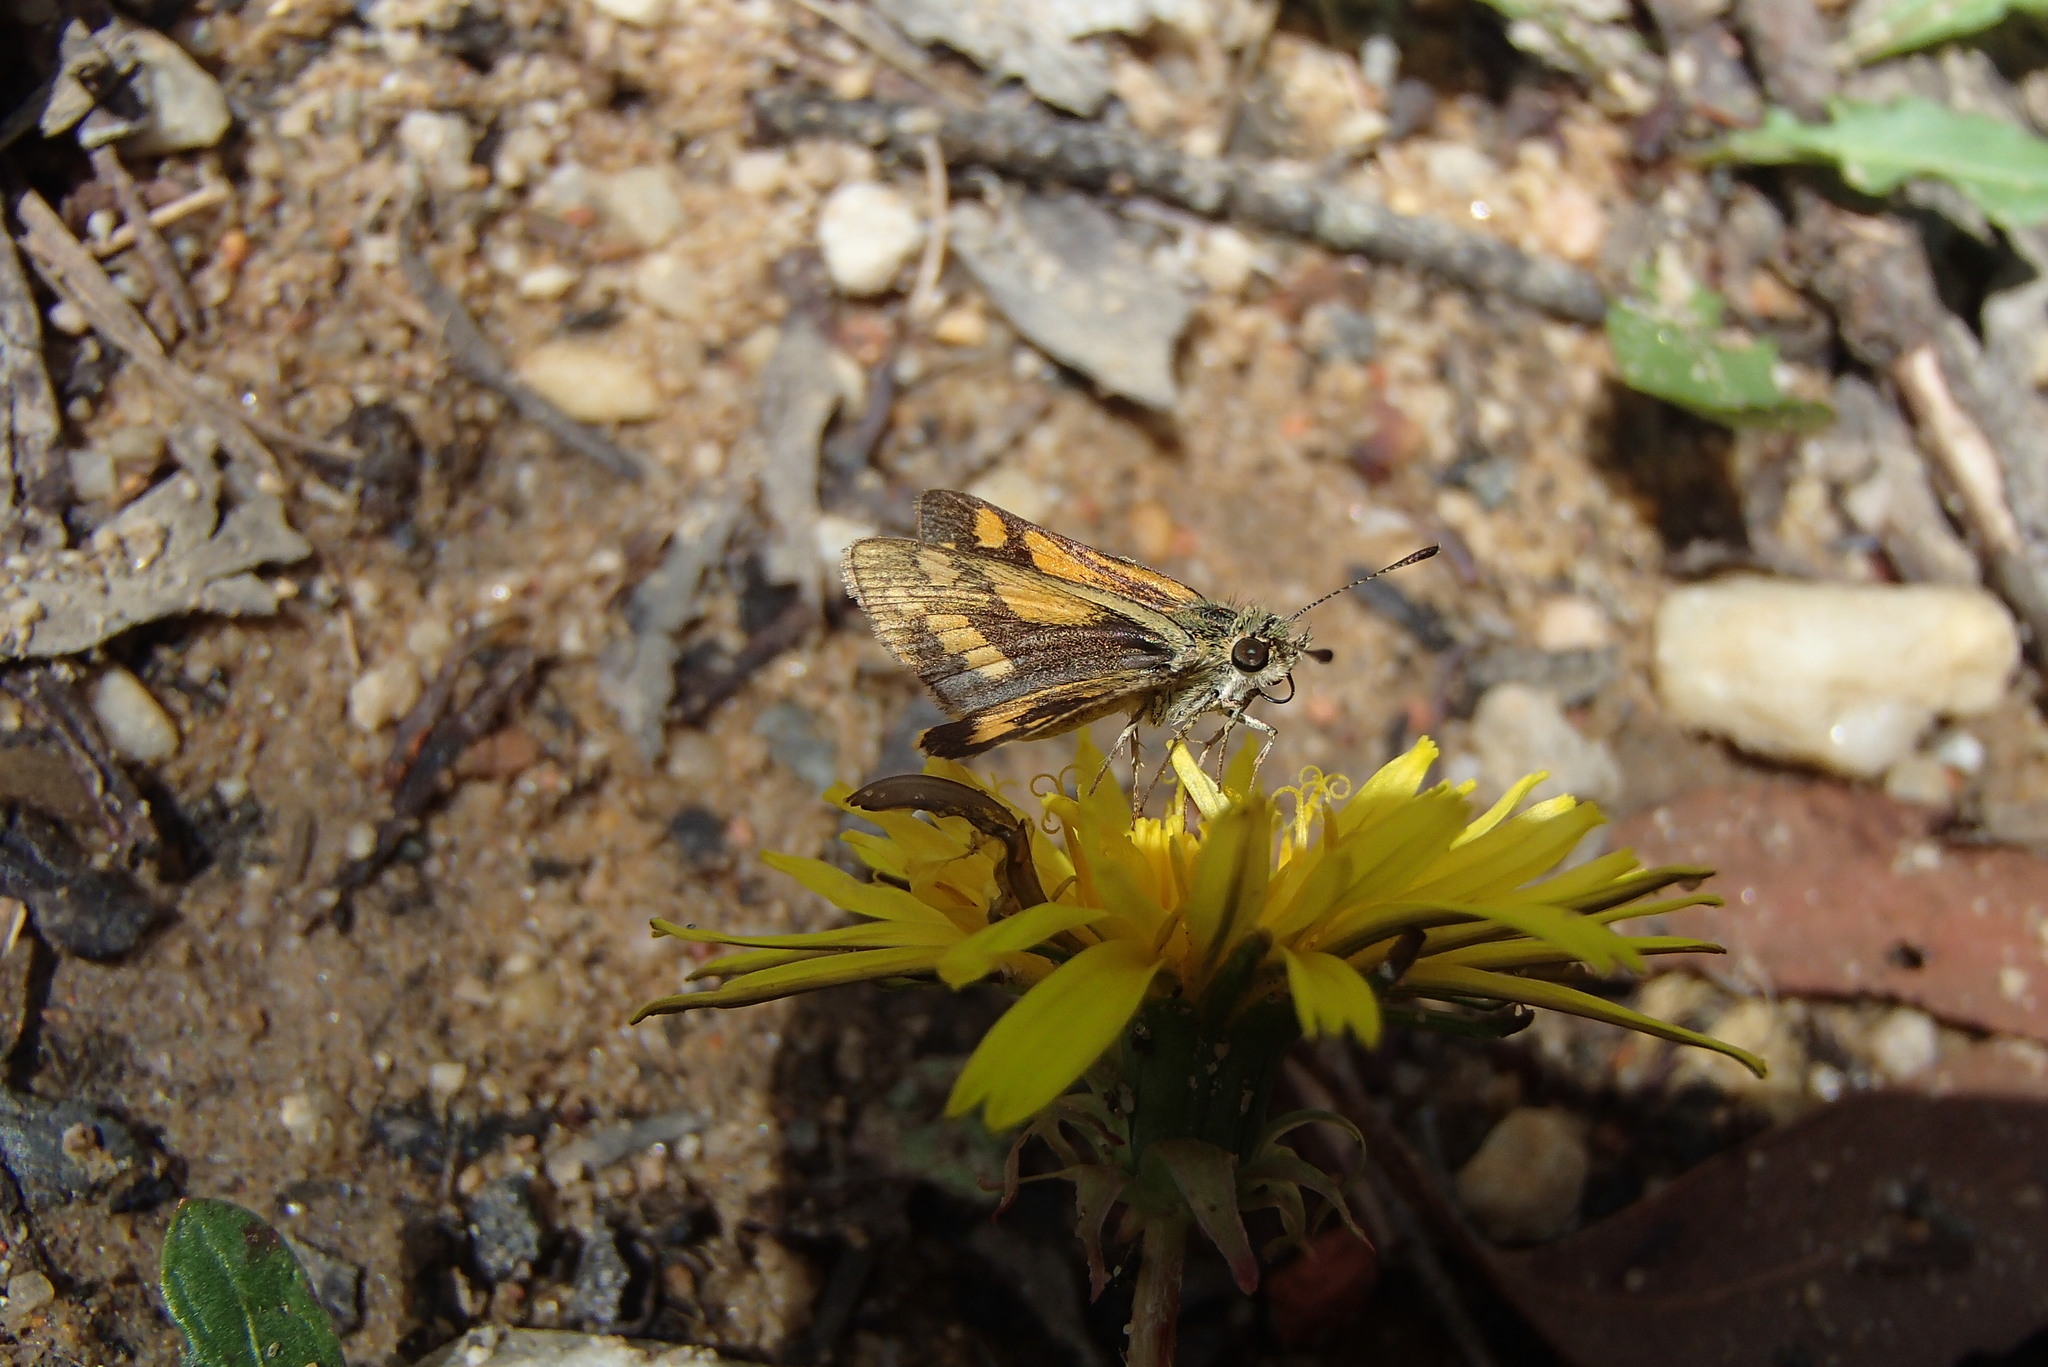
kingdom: Animalia
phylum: Arthropoda
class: Insecta
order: Lepidoptera
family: Hesperiidae
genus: Ocybadistes
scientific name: Ocybadistes walkeri
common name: Yellow-banded dart
